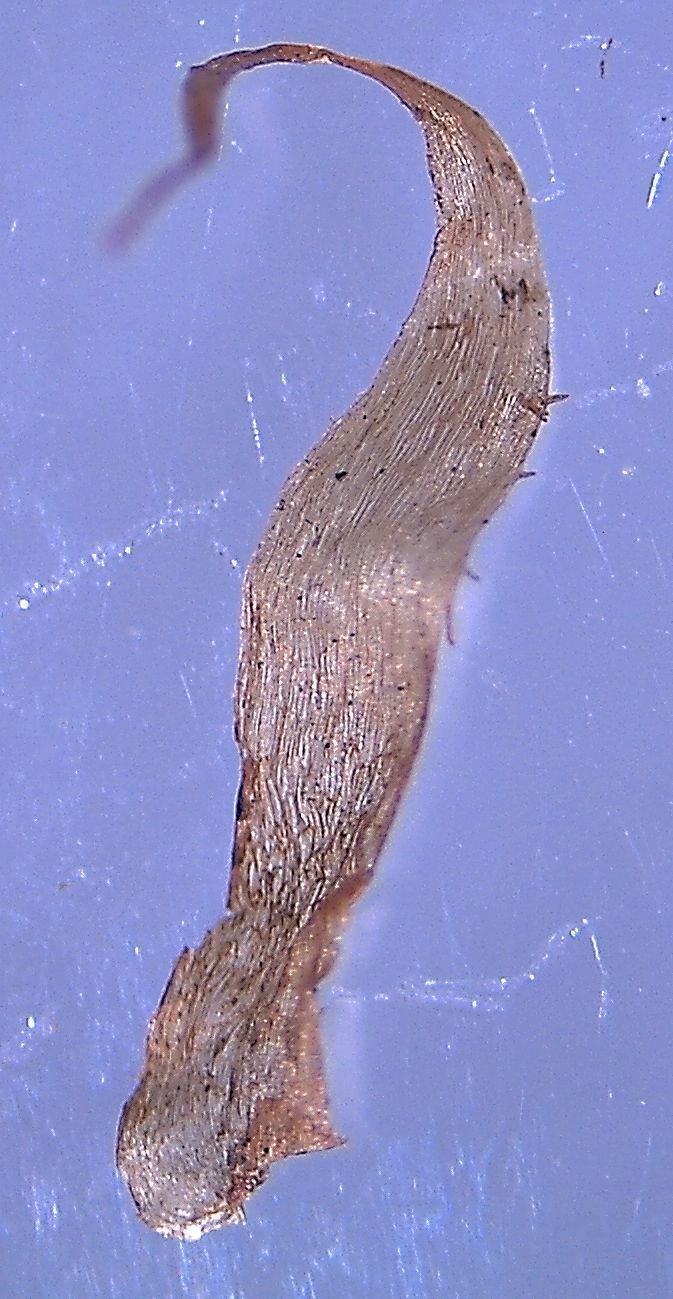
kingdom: Plantae
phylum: Tracheophyta
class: Polypodiopsida
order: Polypodiales
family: Blechnaceae
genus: Parablechnum
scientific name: Parablechnum minus
